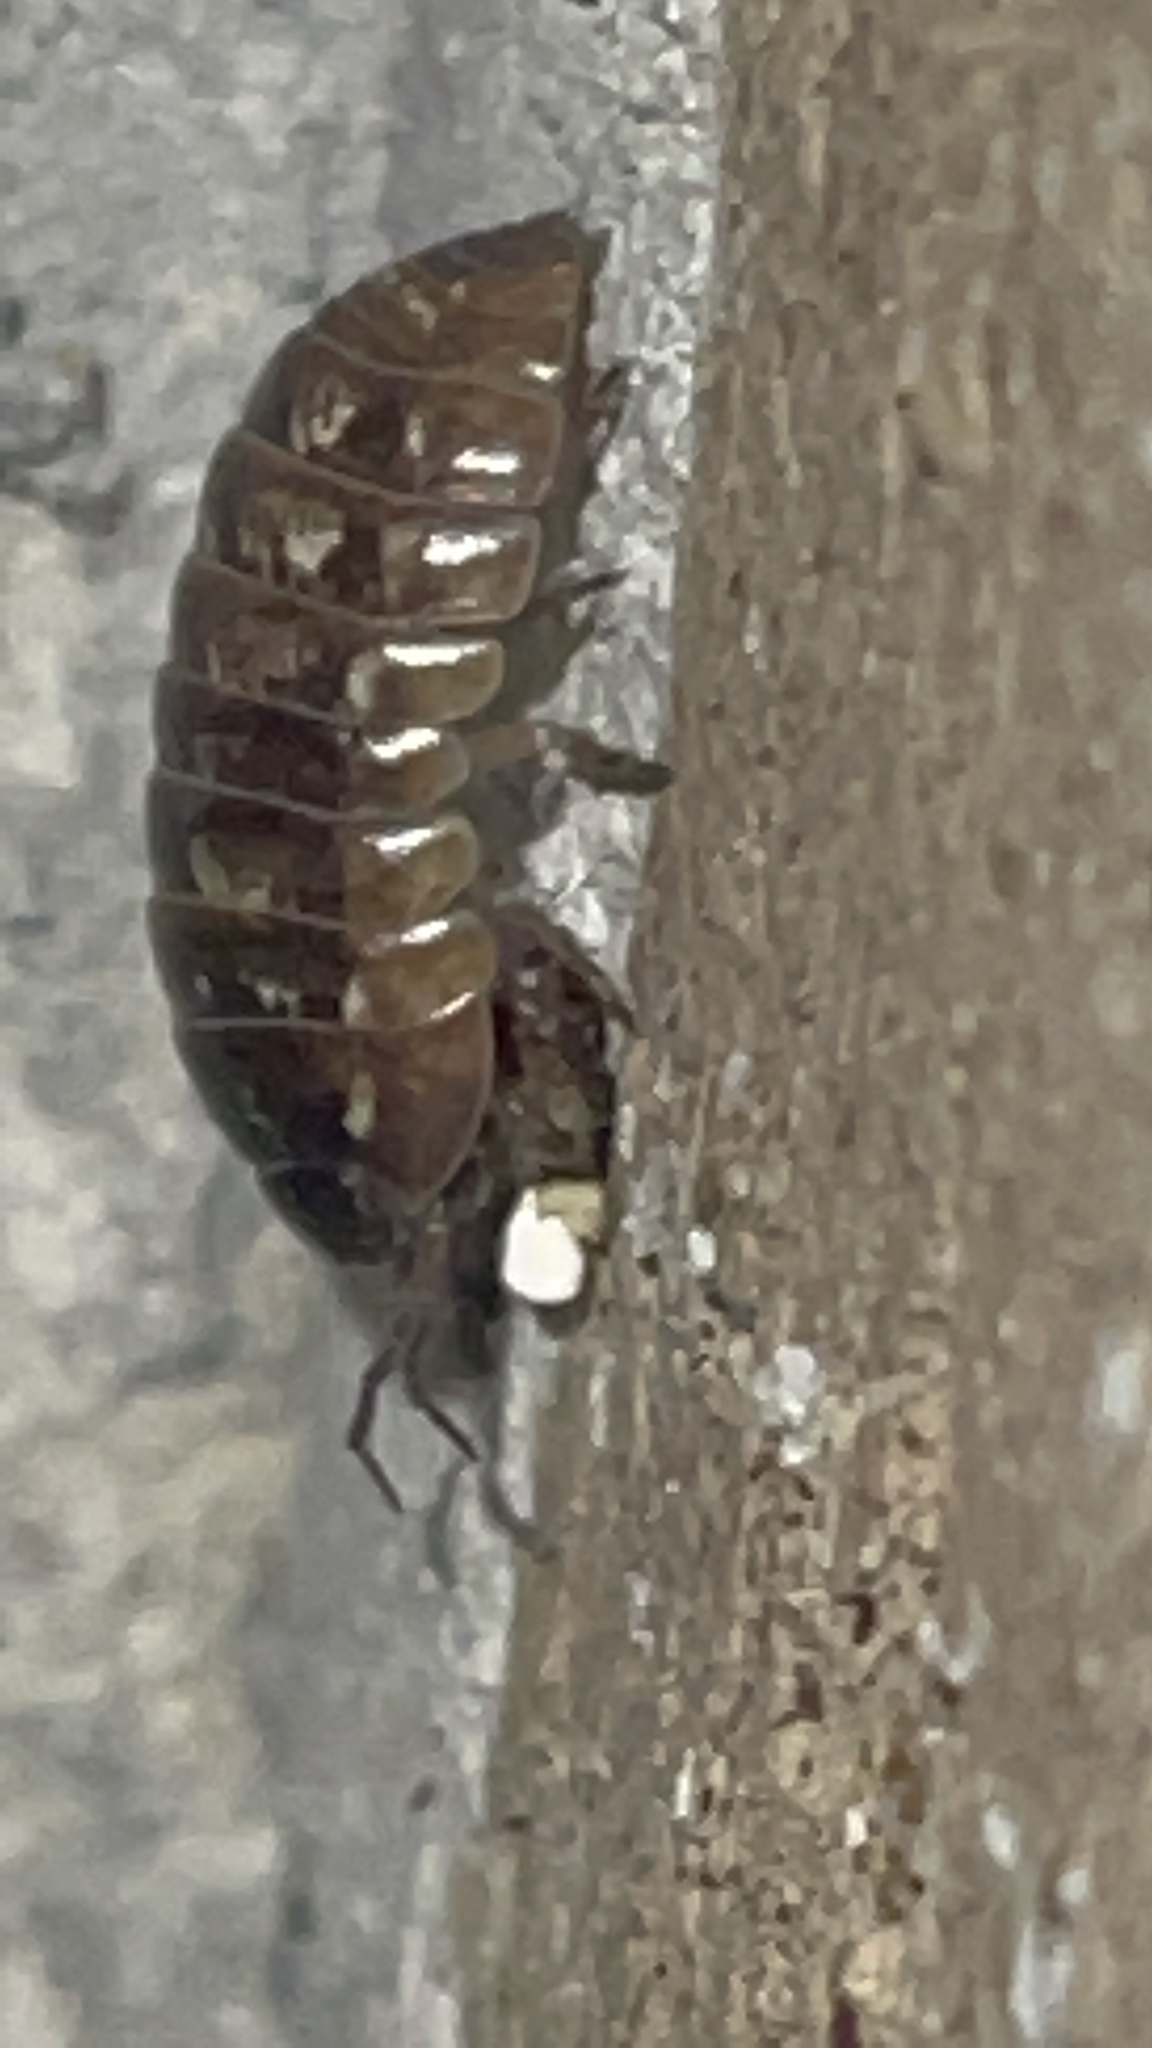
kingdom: Animalia
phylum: Arthropoda
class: Malacostraca
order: Isopoda
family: Armadillidiidae
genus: Armadillidium
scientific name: Armadillidium vulgare
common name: Common pill woodlouse
